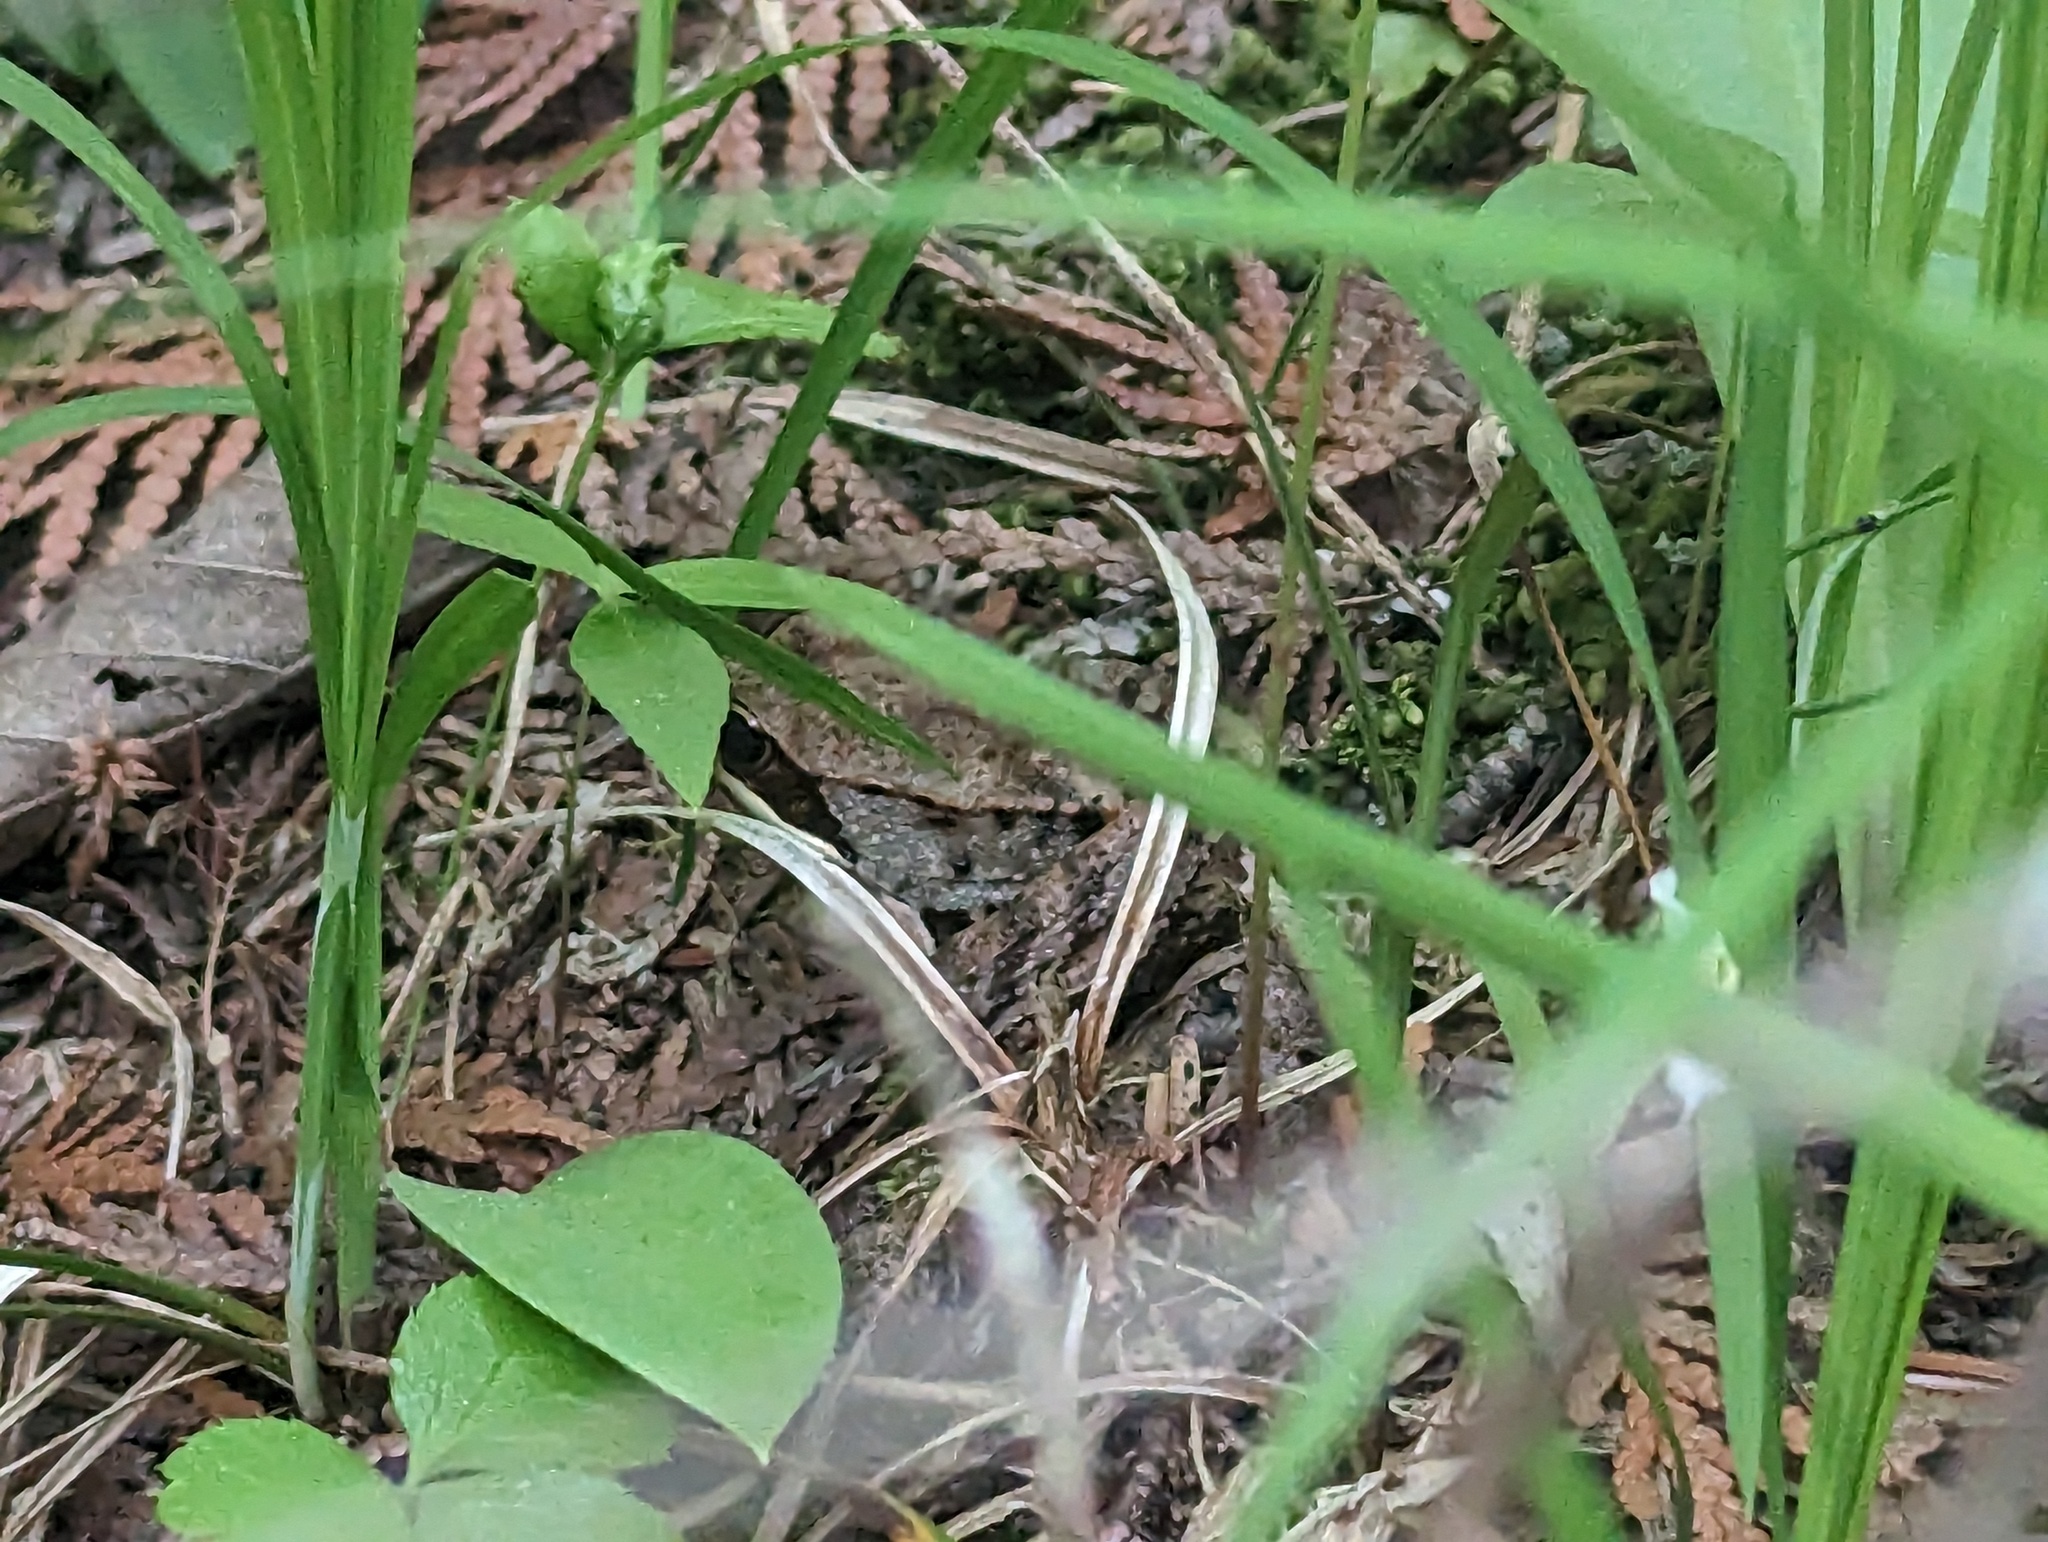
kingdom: Animalia
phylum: Chordata
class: Amphibia
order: Anura
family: Ranidae
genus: Lithobates
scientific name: Lithobates sylvaticus
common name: Wood frog
